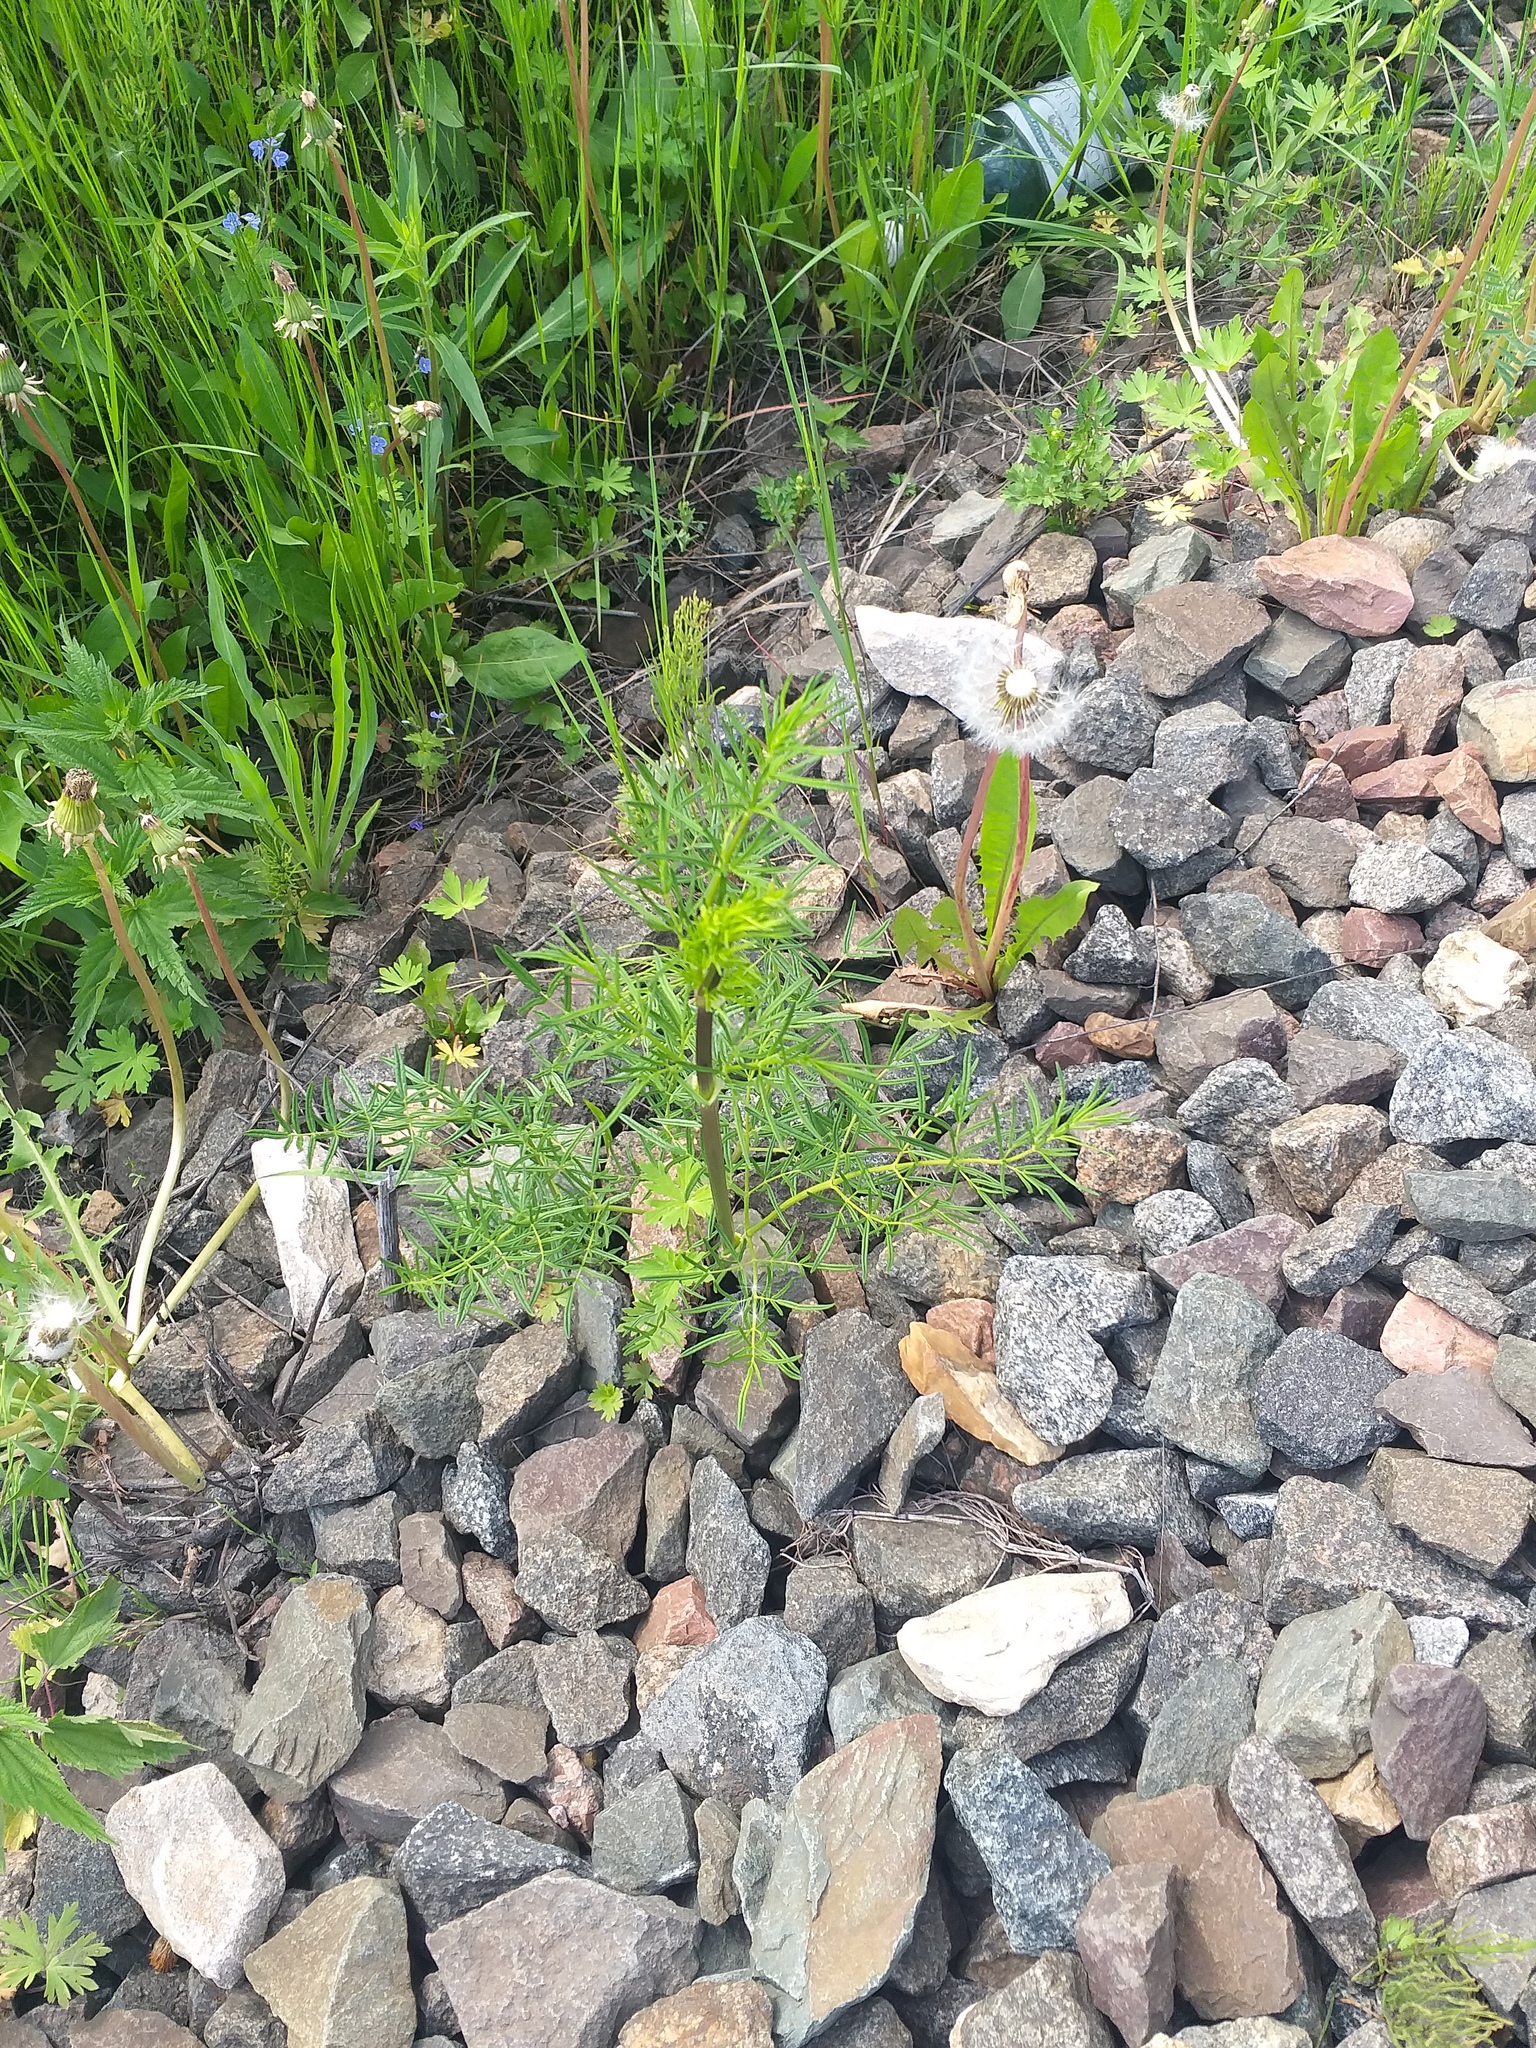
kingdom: Plantae
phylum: Tracheophyta
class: Magnoliopsida
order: Ranunculales
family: Ranunculaceae
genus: Thalictrum
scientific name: Thalictrum lucidum
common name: Shining meadow-rue
